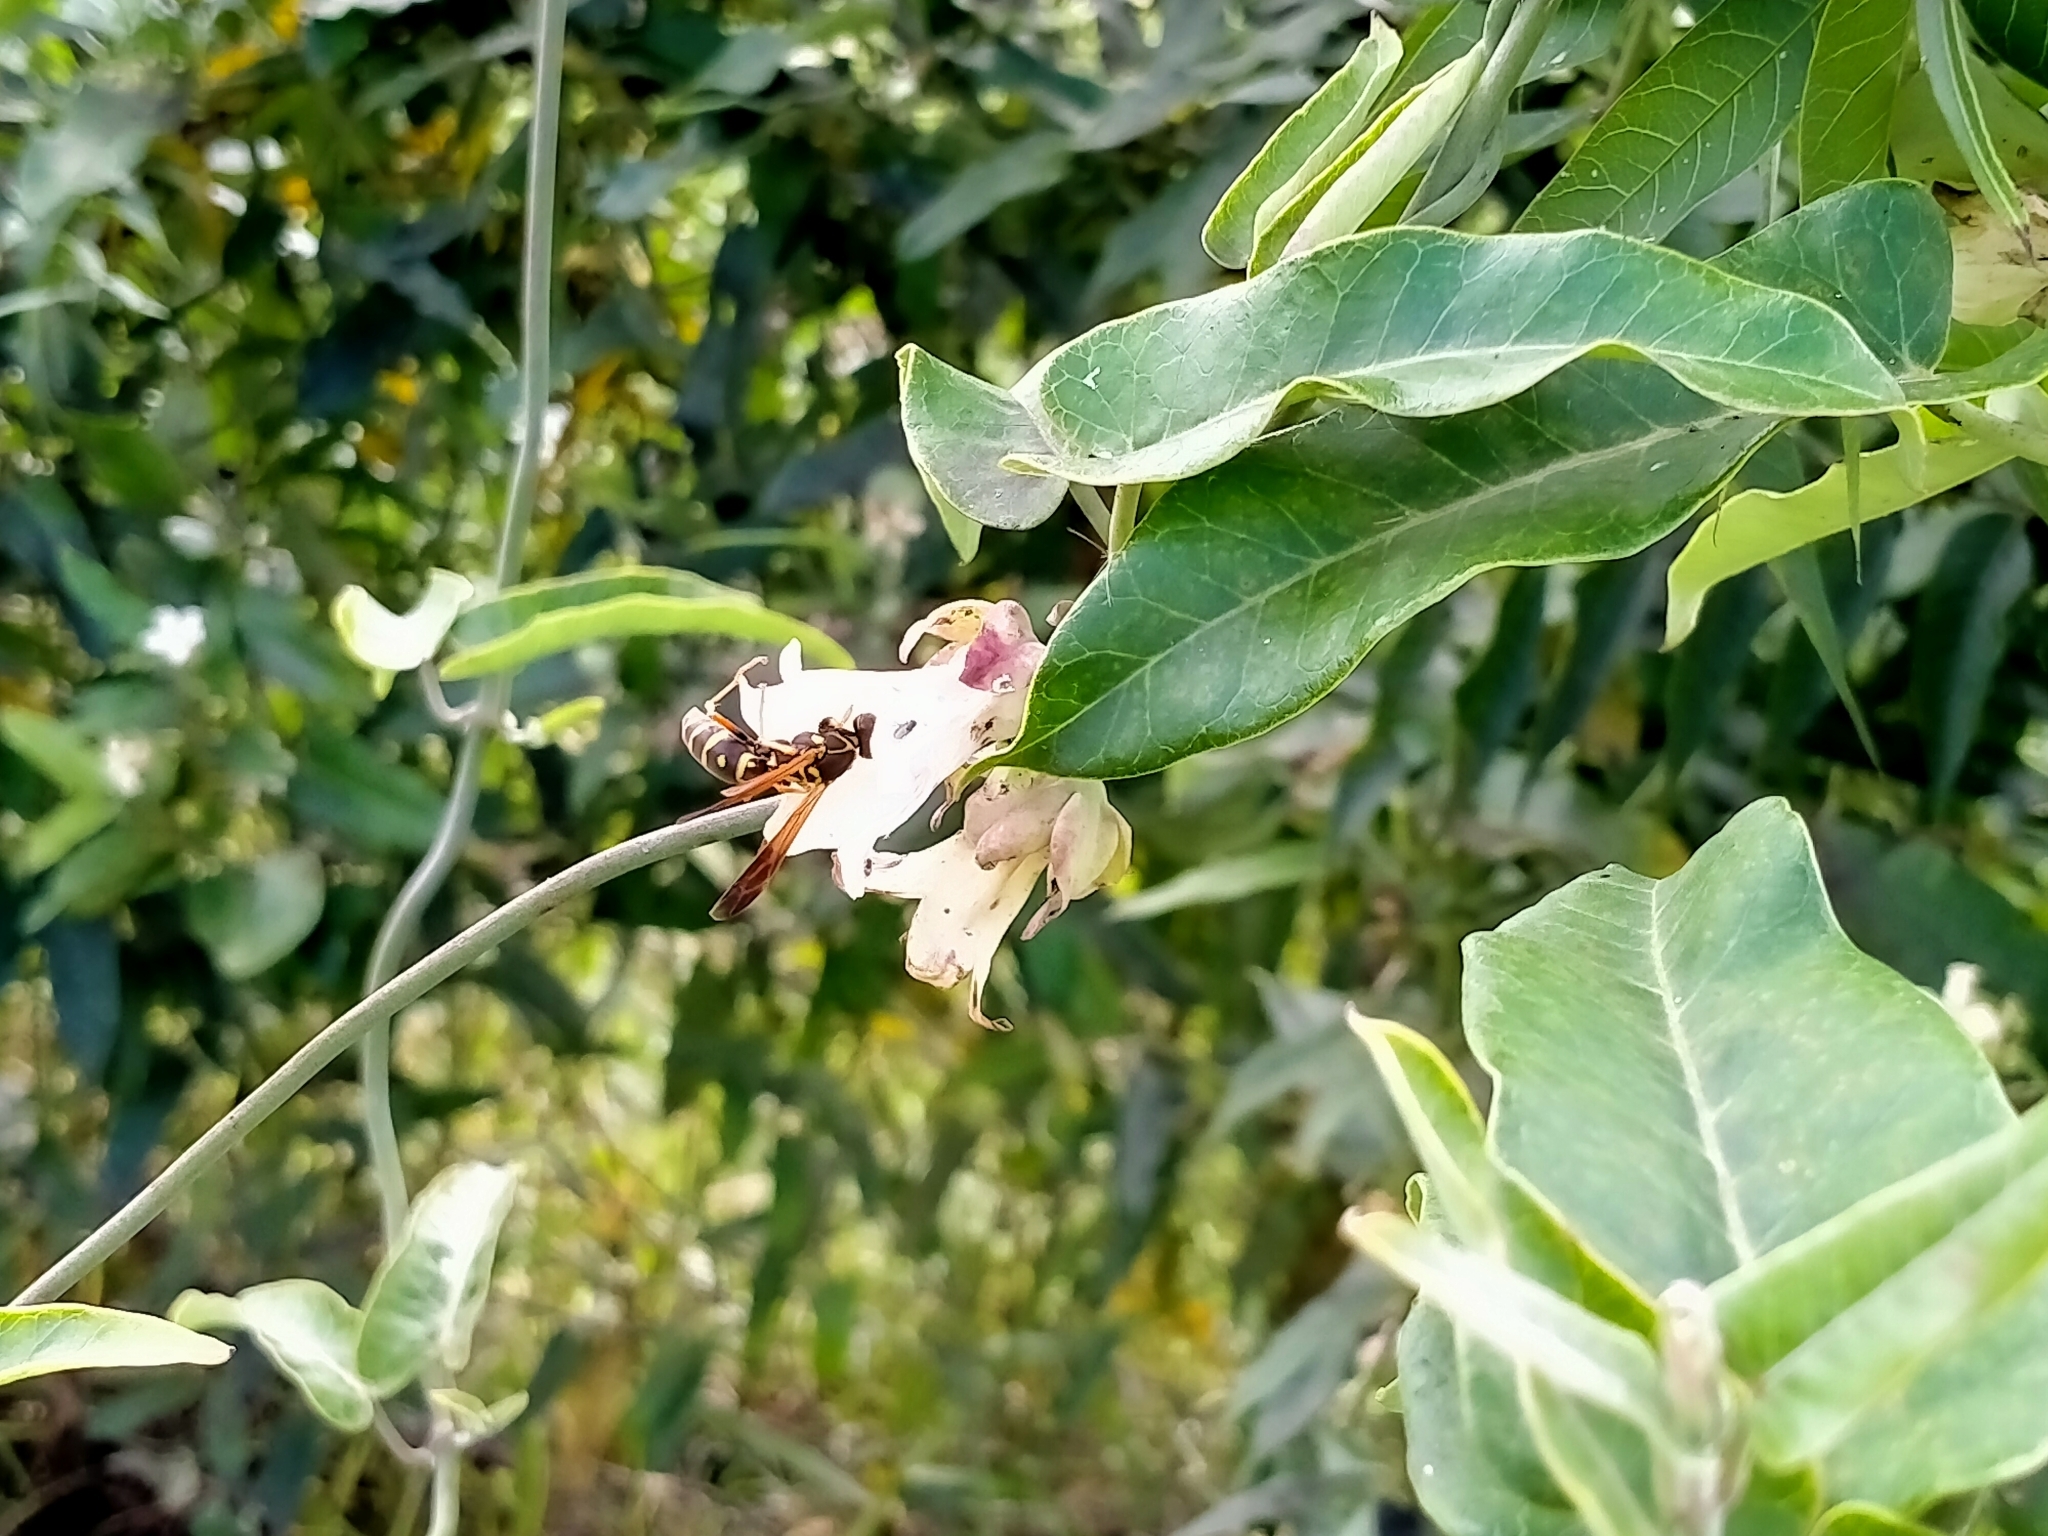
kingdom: Plantae
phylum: Tracheophyta
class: Magnoliopsida
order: Gentianales
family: Apocynaceae
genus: Araujia
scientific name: Araujia sericifera
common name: White bladderflower
